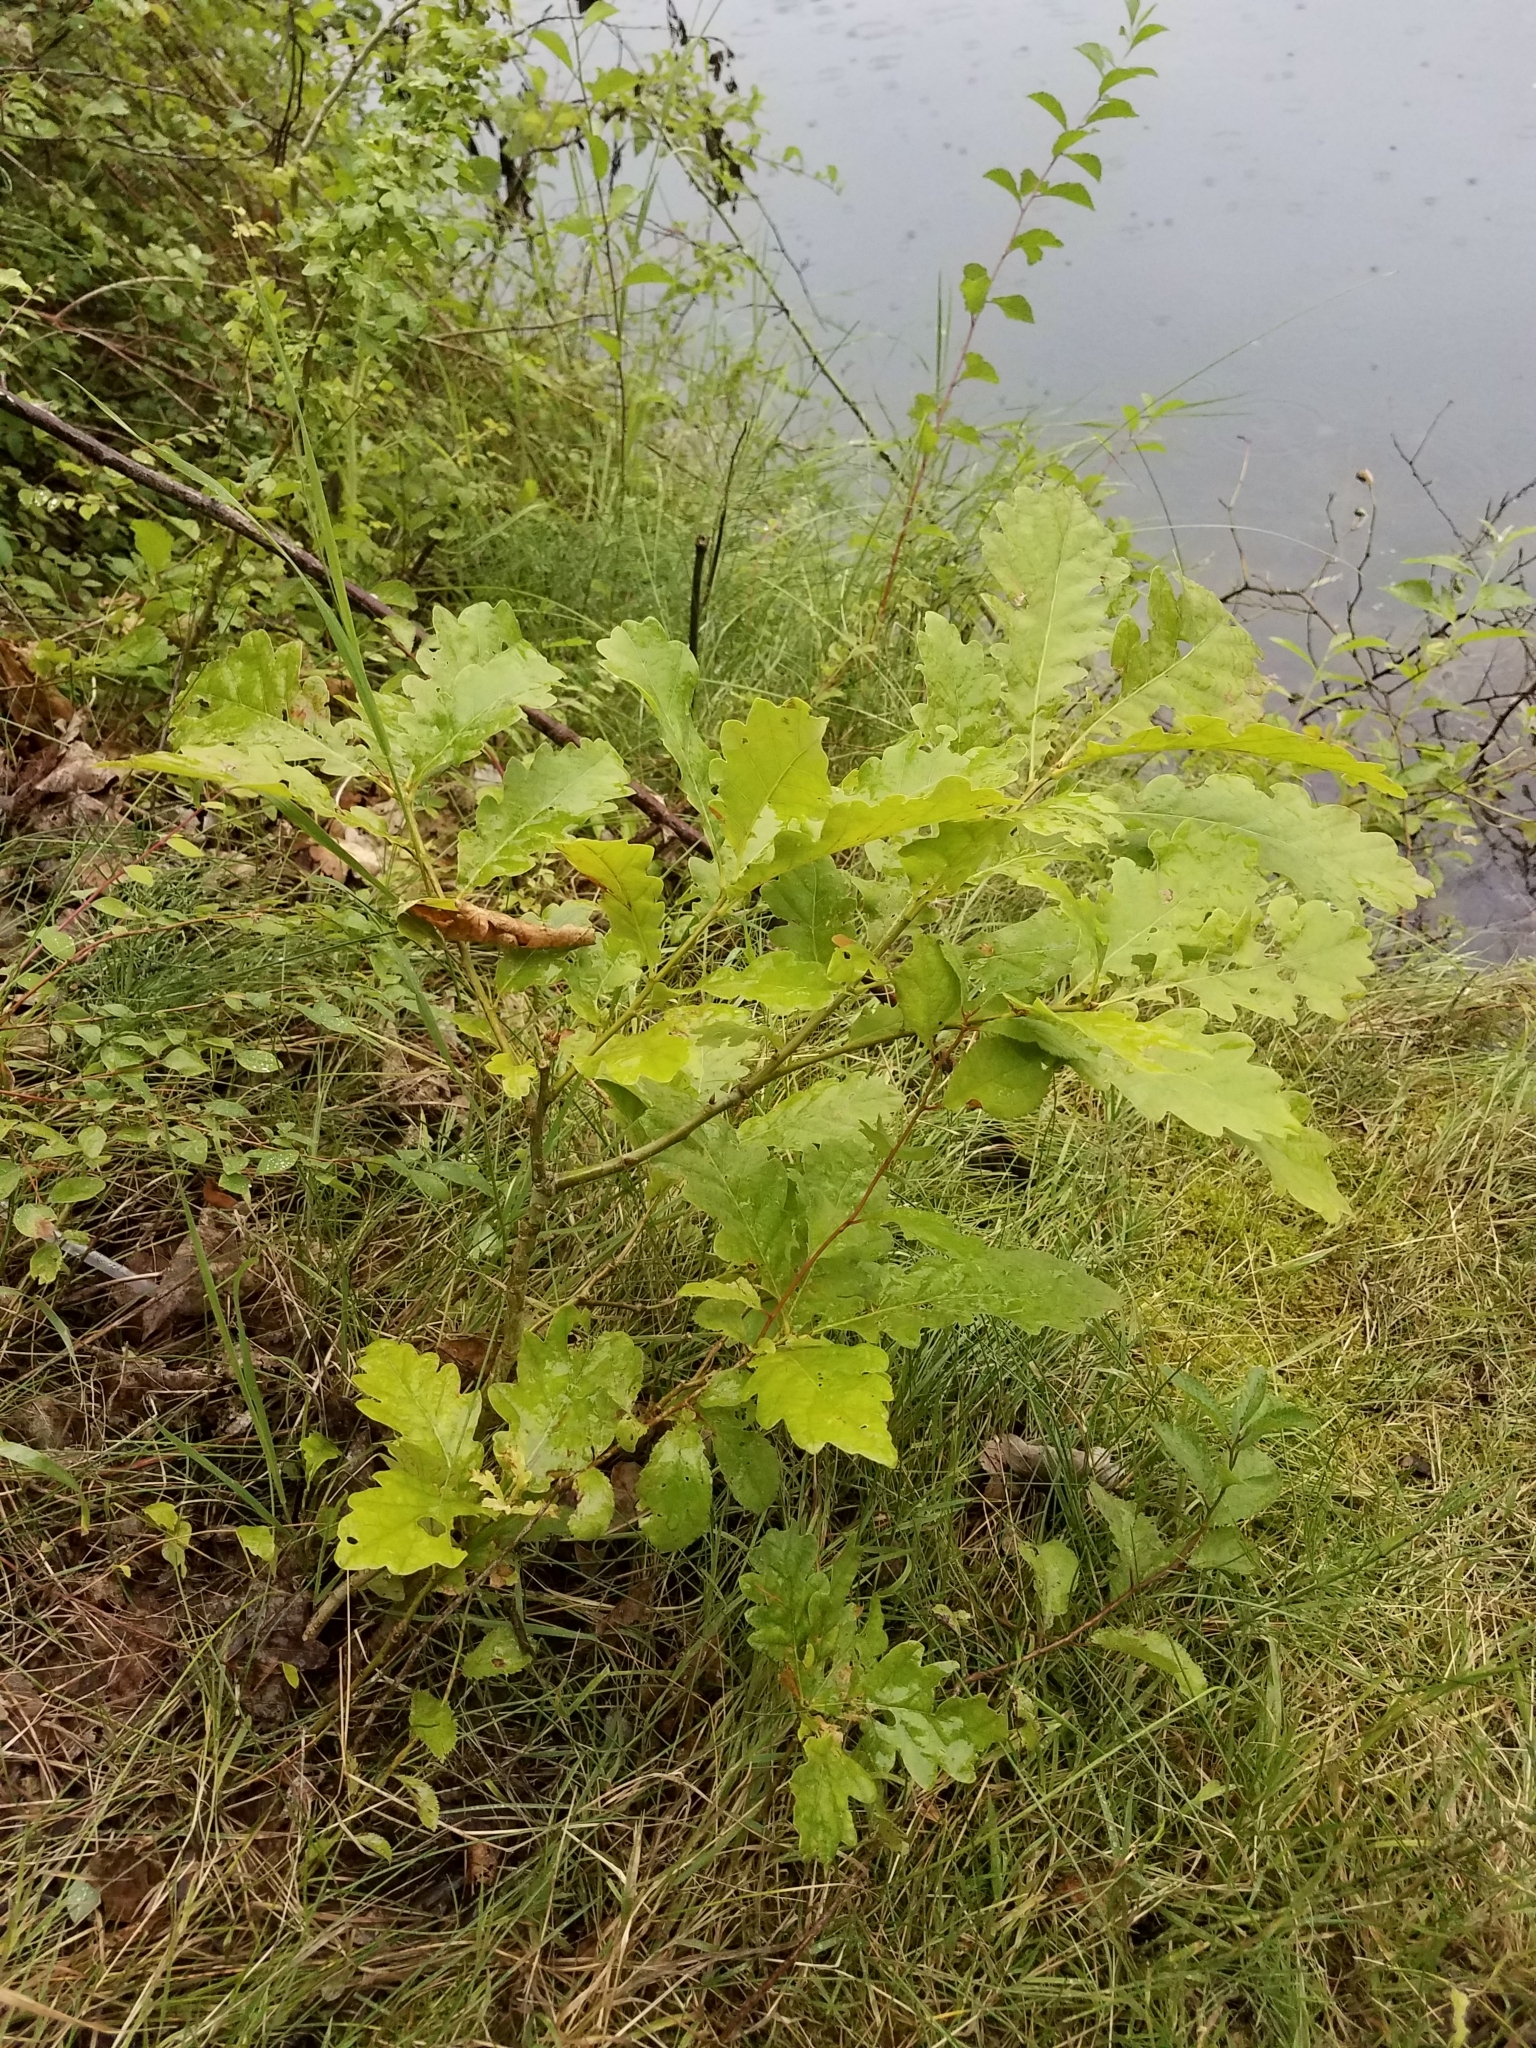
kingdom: Plantae
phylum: Tracheophyta
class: Magnoliopsida
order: Fagales
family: Fagaceae
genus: Quercus
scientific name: Quercus robur
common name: Pedunculate oak
